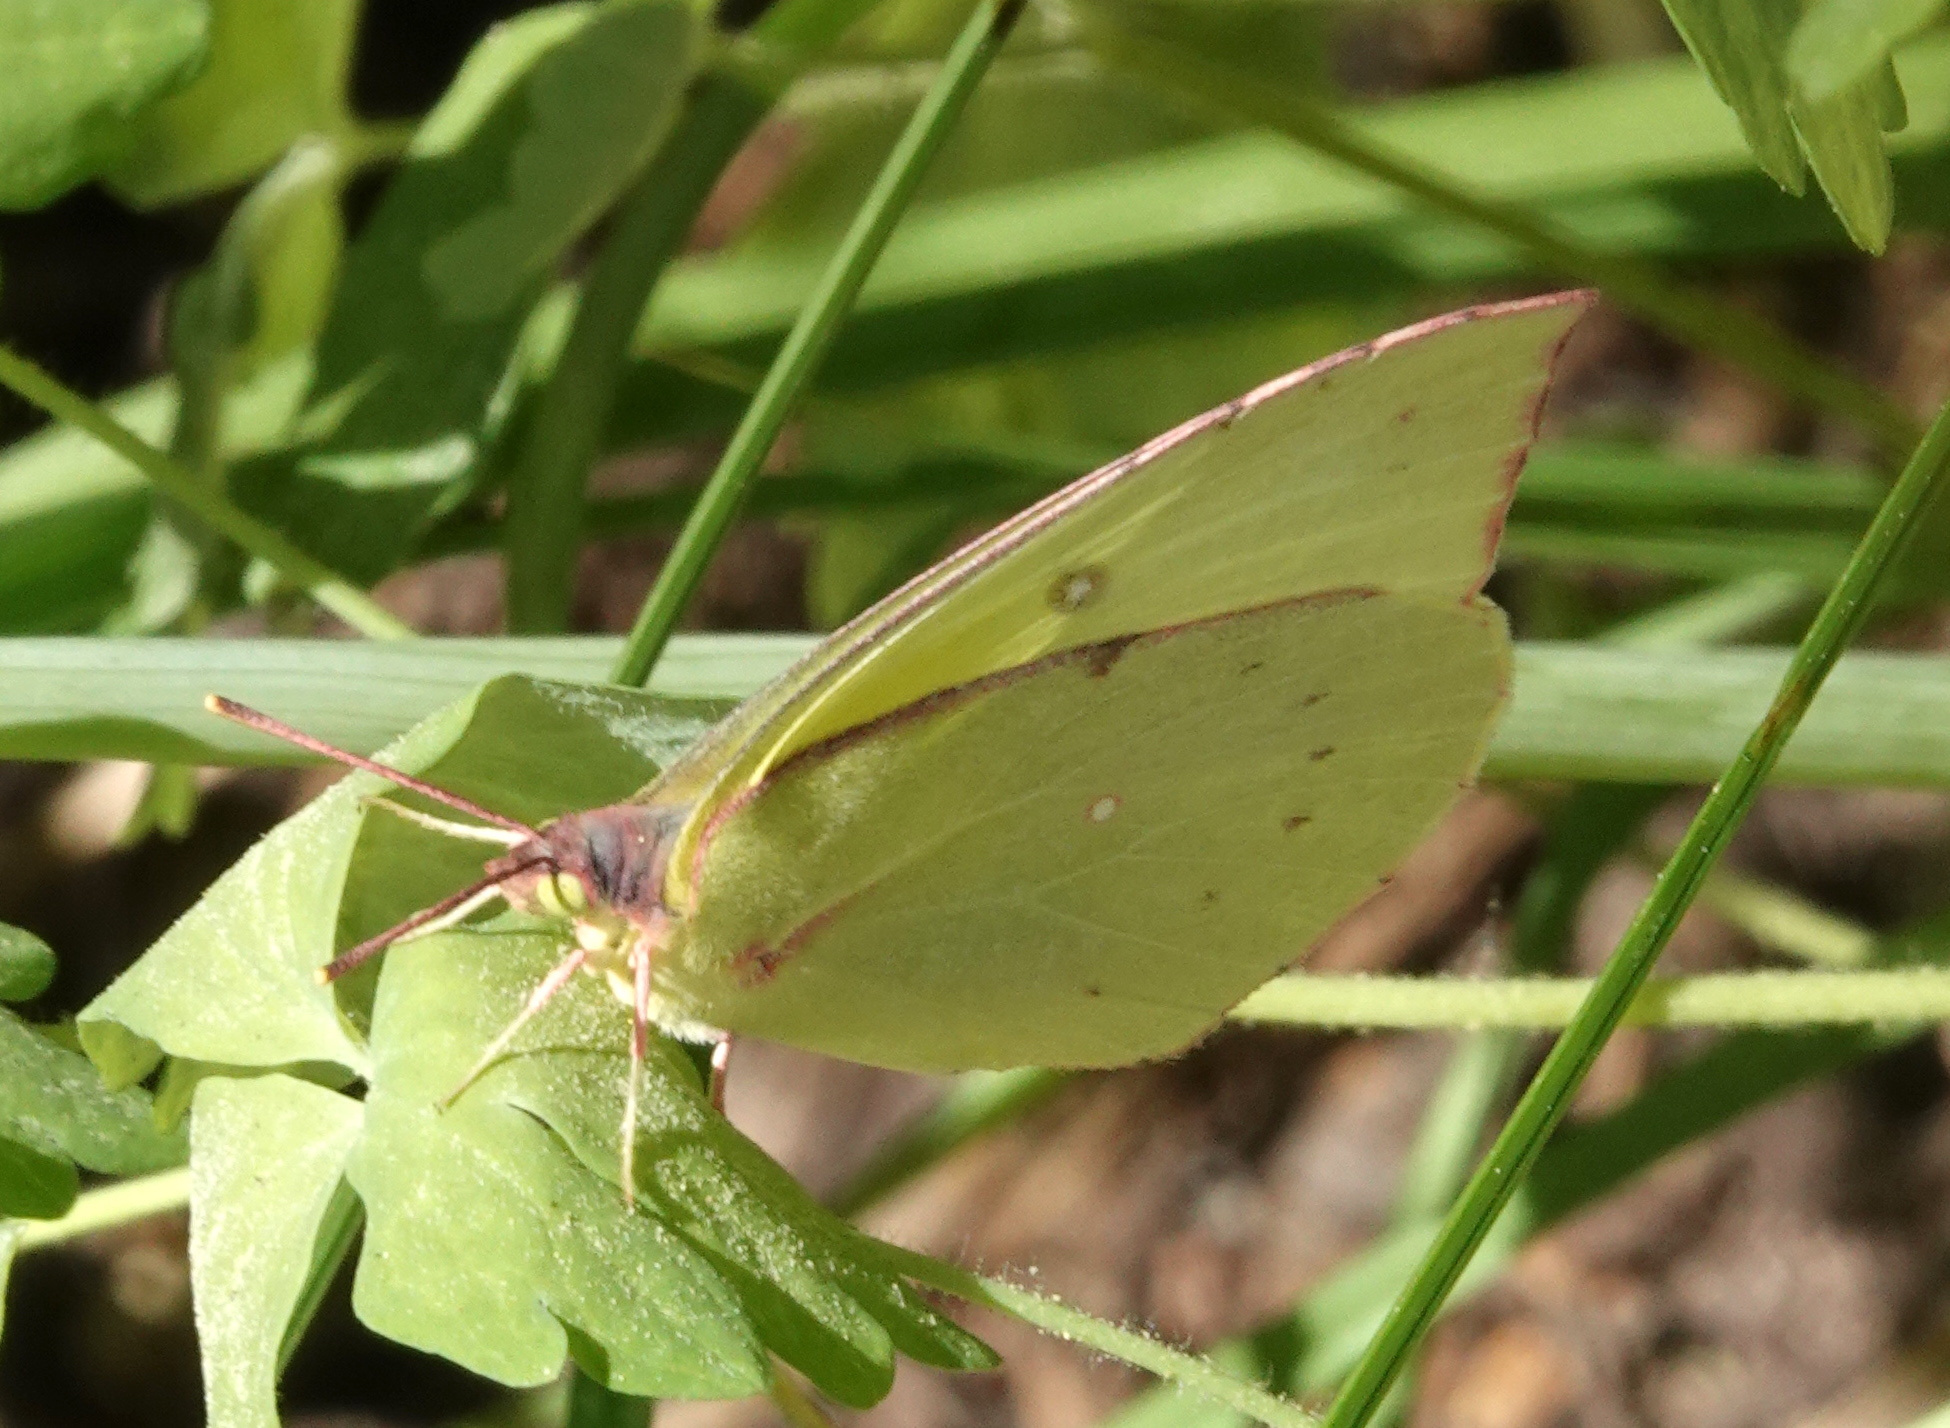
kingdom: Animalia
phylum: Arthropoda
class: Insecta
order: Lepidoptera
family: Pieridae
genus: Zerene
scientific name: Zerene eurydice
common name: California dogface
